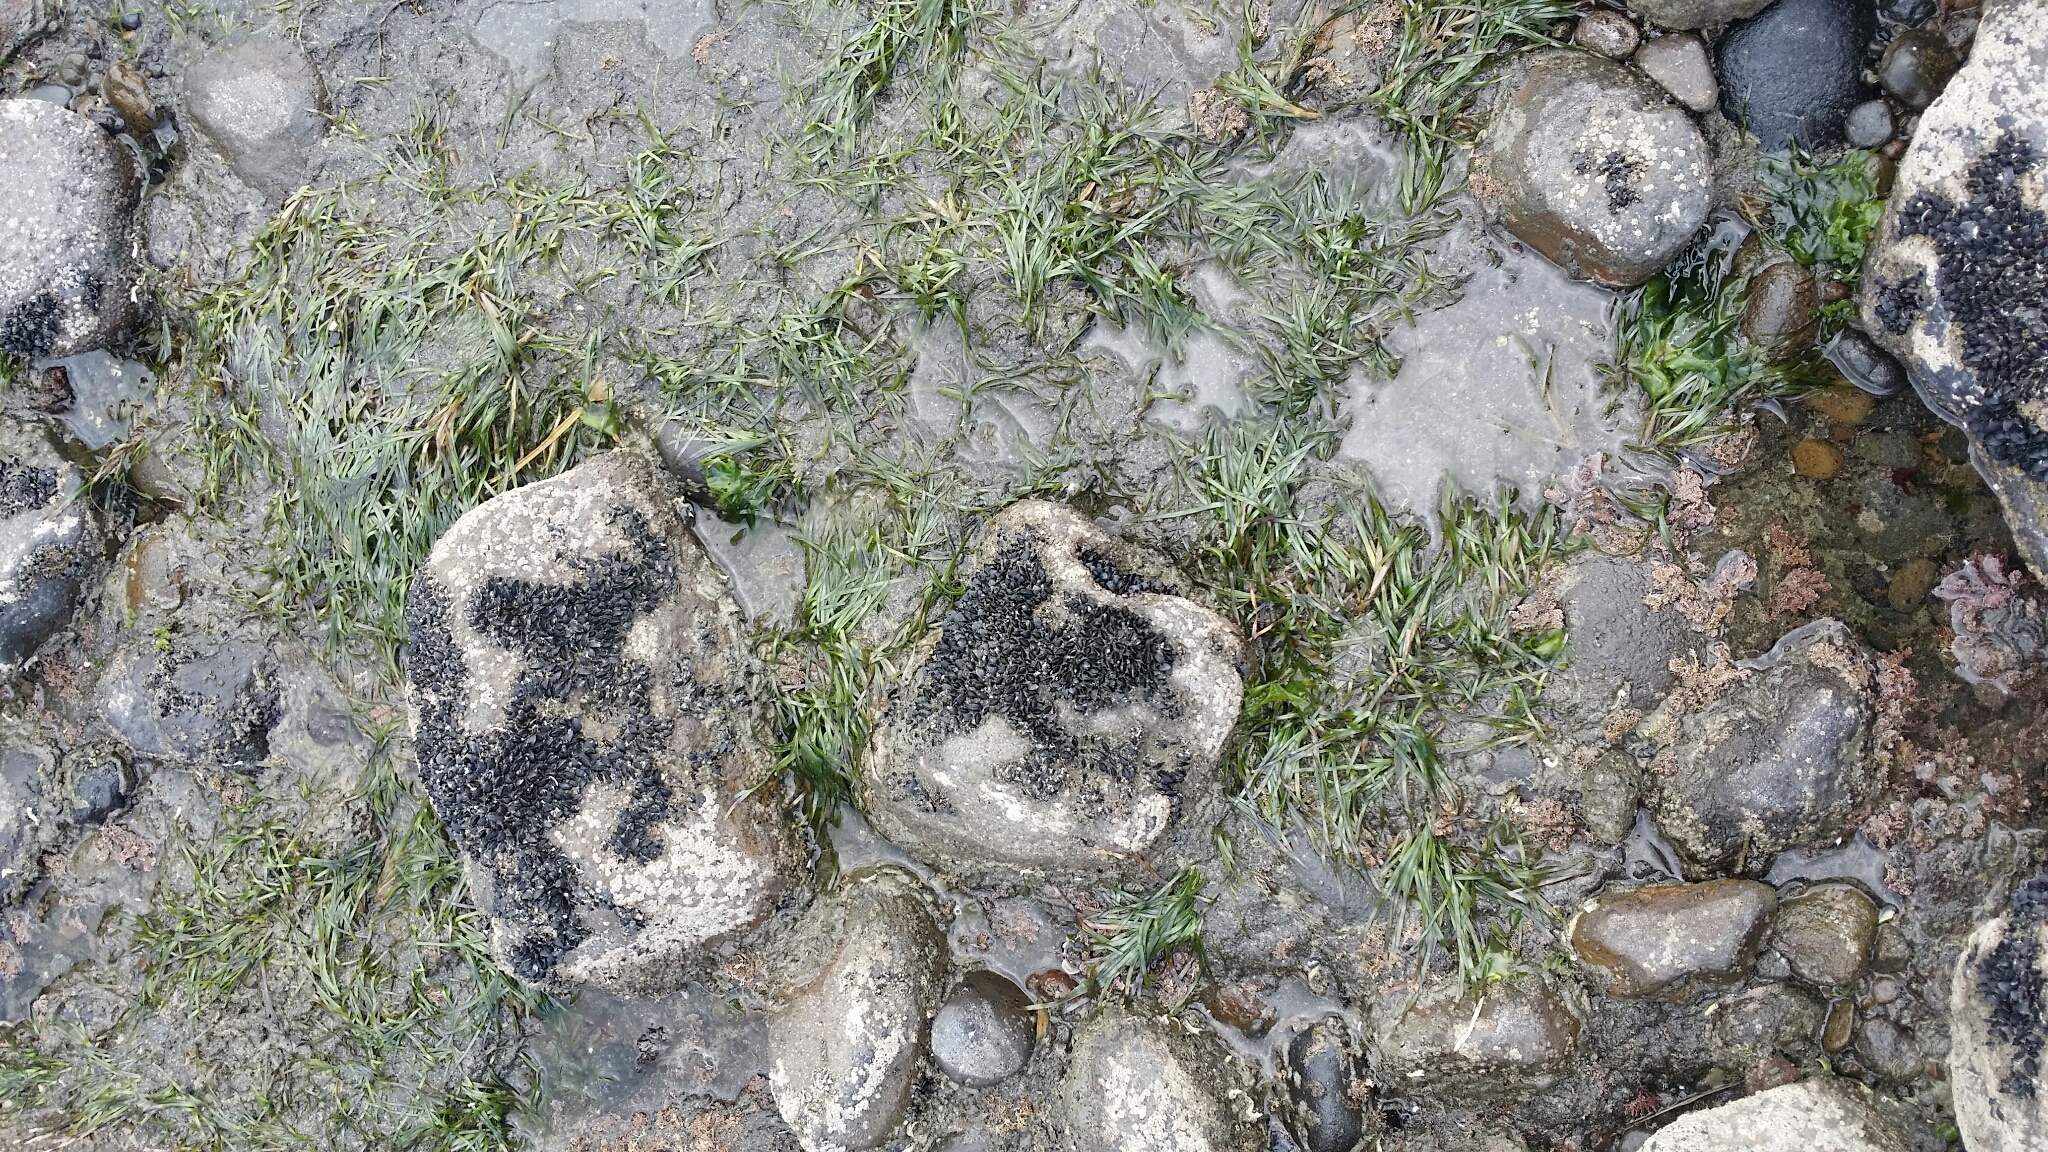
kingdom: Plantae
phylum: Tracheophyta
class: Liliopsida
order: Alismatales
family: Zosteraceae
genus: Zostera
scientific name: Zostera novazelandica
